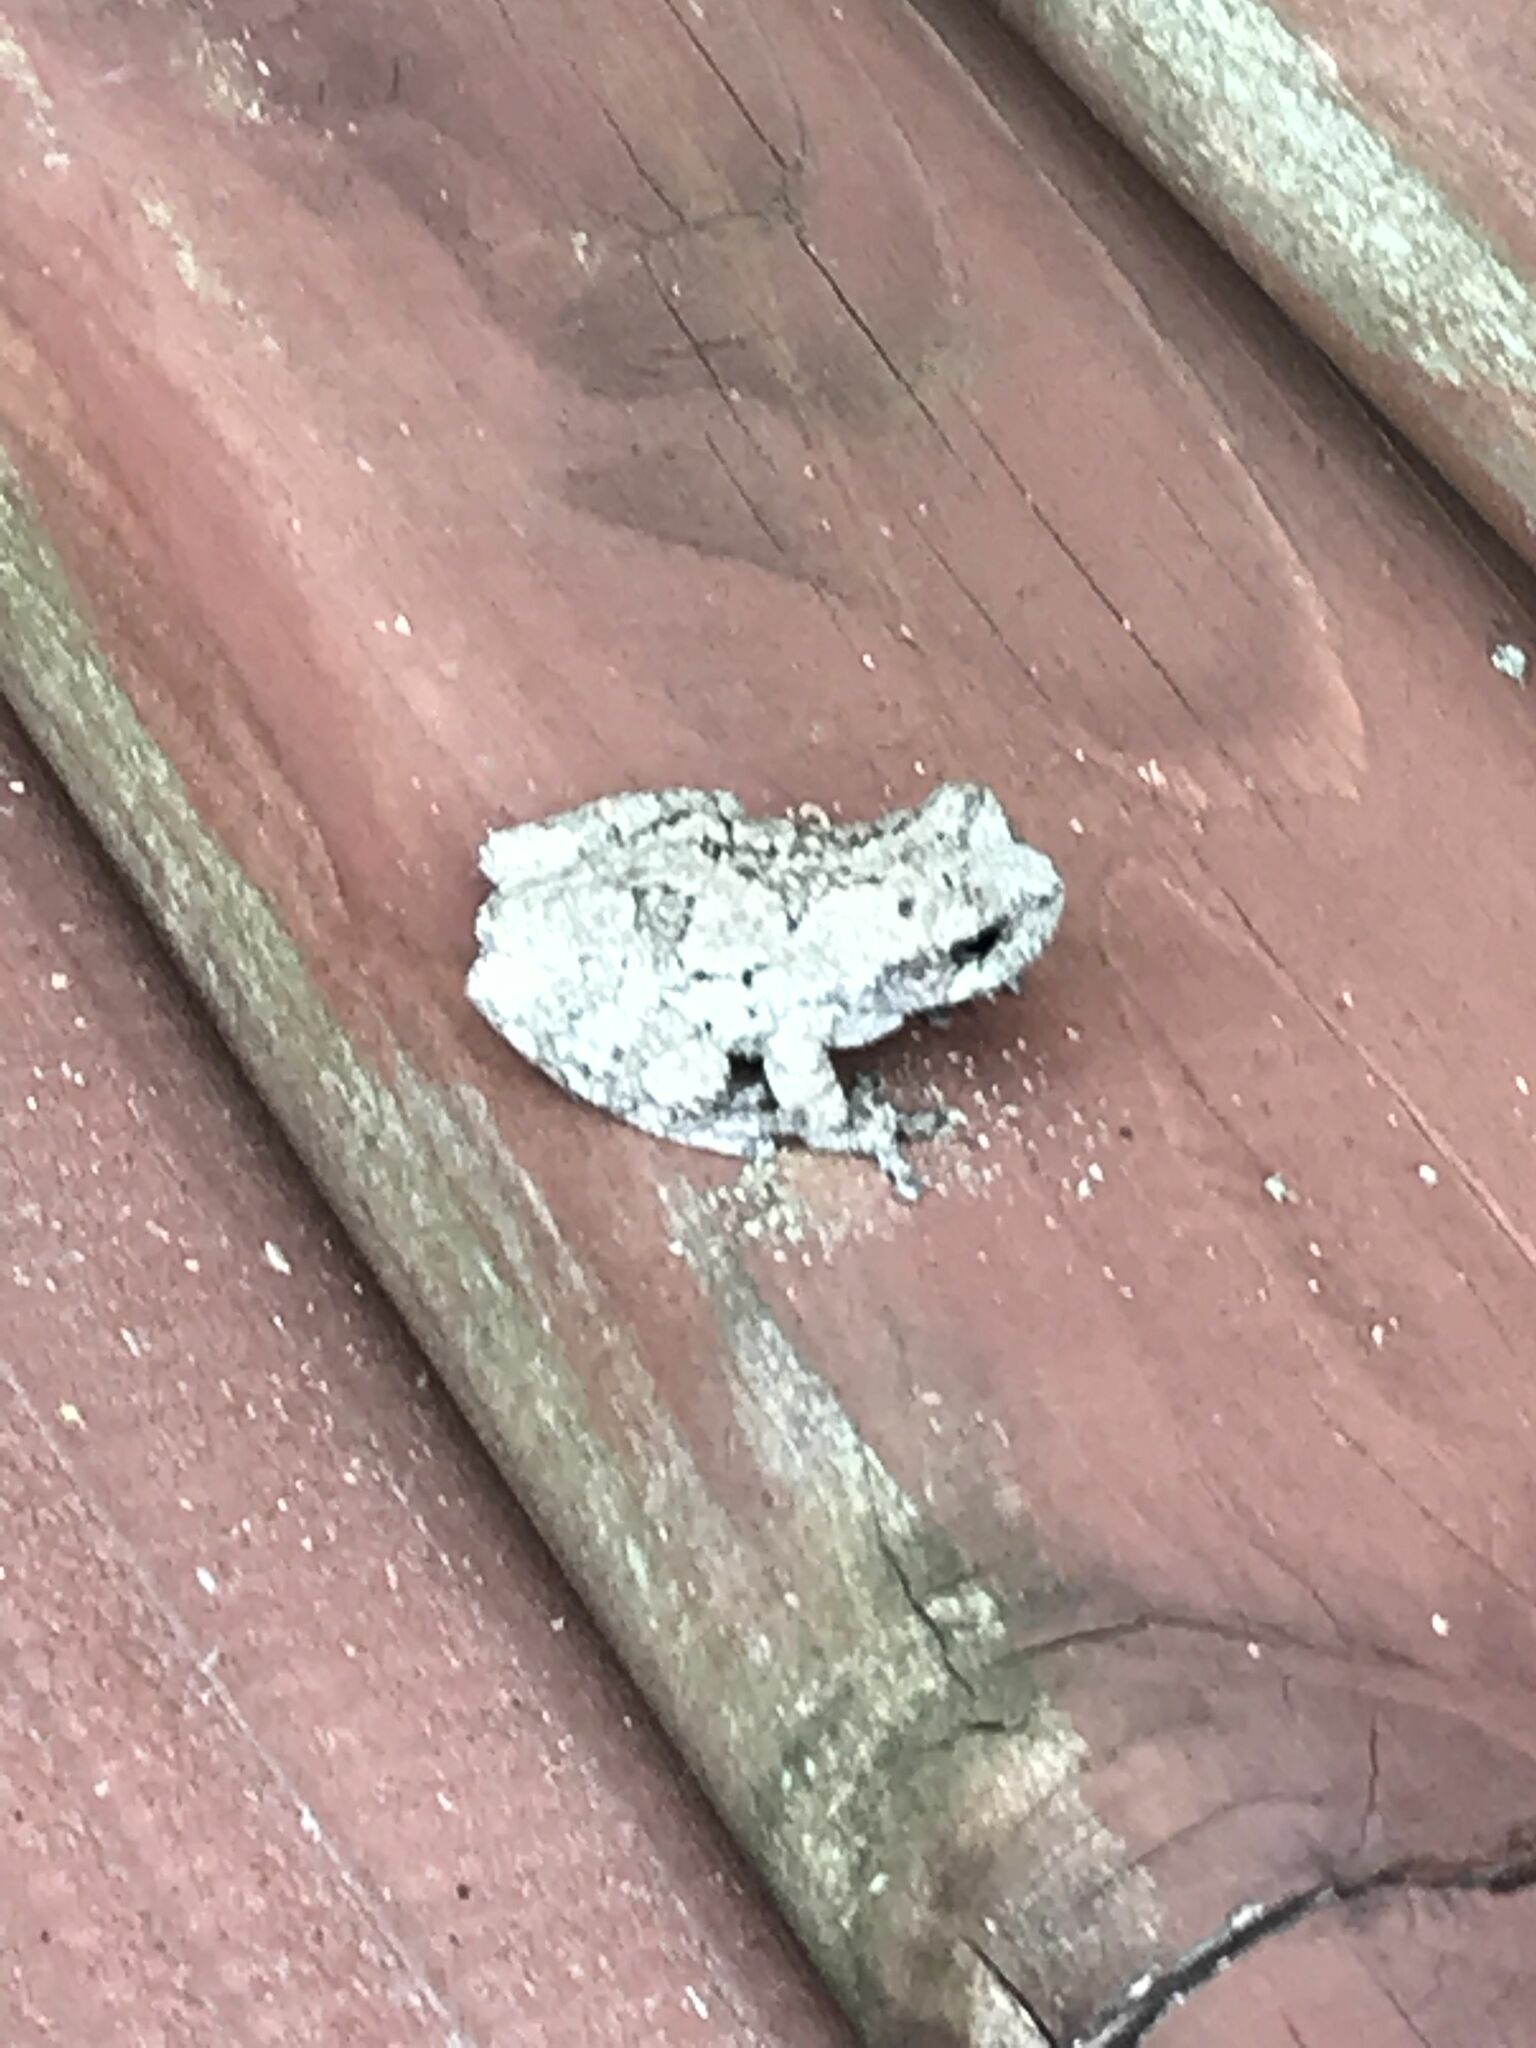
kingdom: Animalia
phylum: Chordata
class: Amphibia
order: Anura
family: Hylidae
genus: Dryophytes
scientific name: Dryophytes versicolor
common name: Gray treefrog
